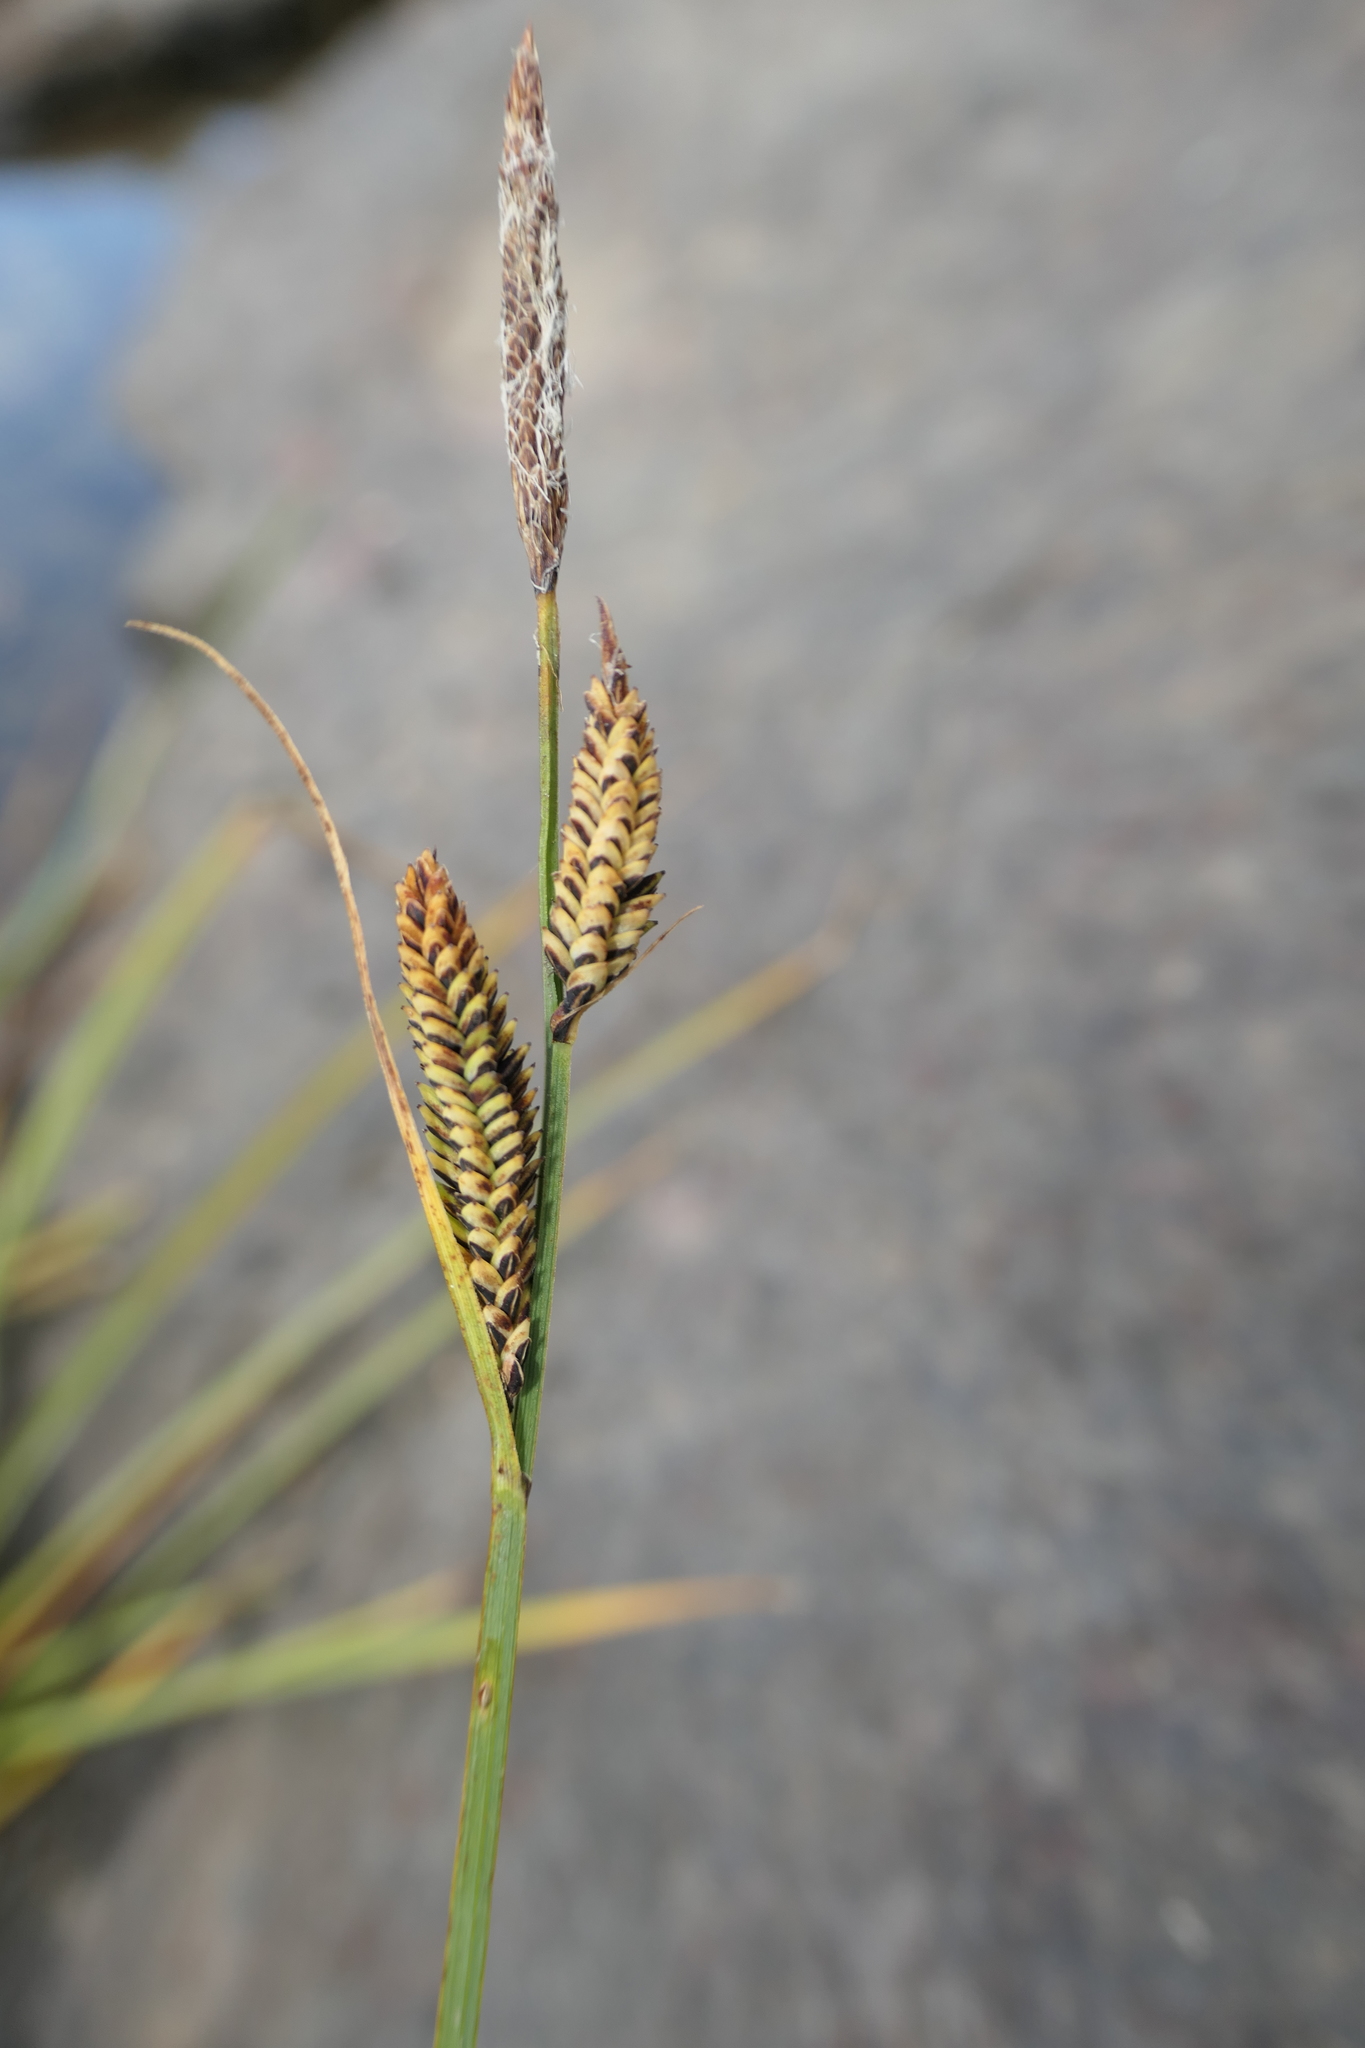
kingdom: Plantae
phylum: Tracheophyta
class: Liliopsida
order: Poales
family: Cyperaceae
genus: Carex
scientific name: Carex nigra
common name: Common sedge
